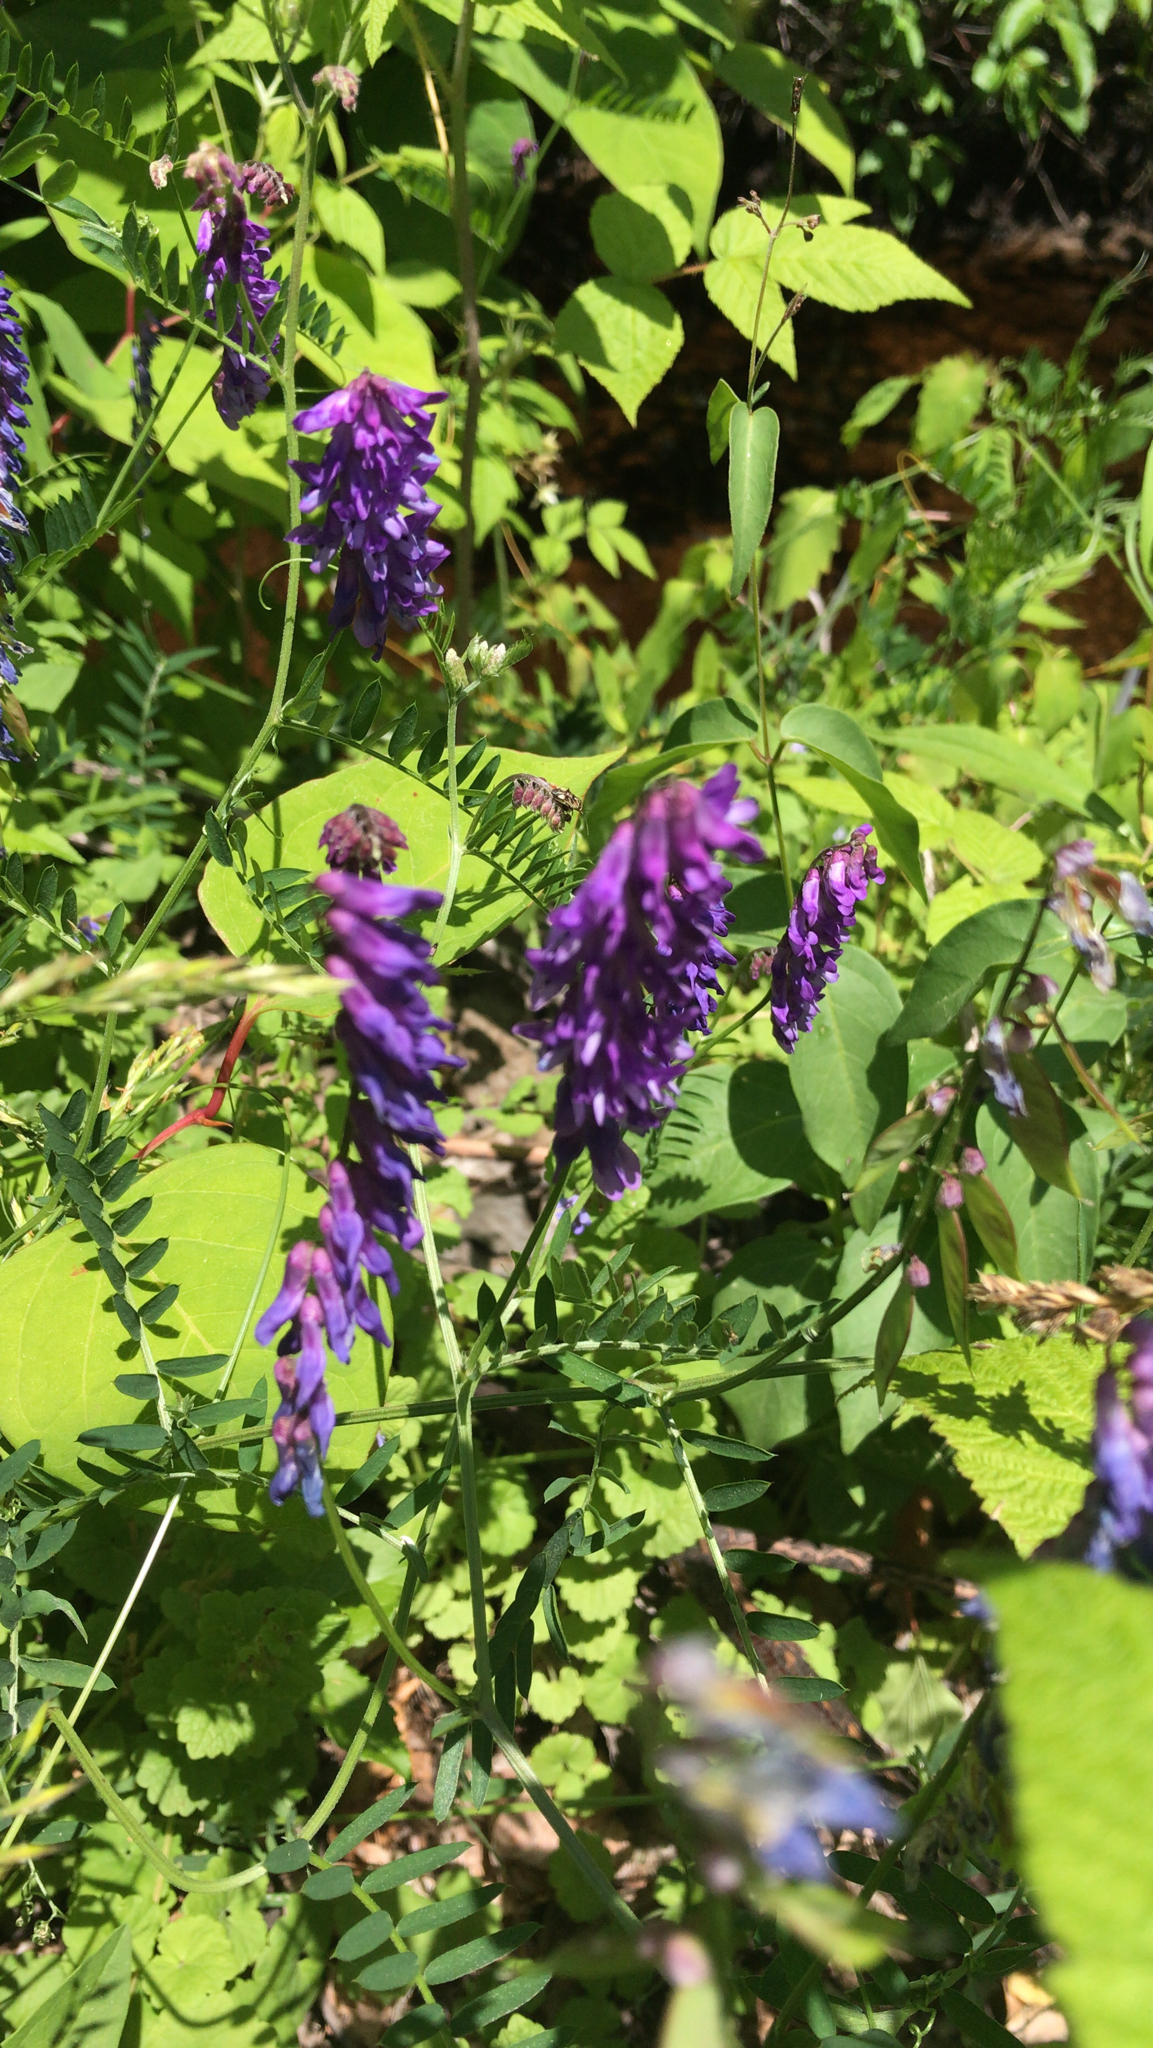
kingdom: Plantae
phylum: Tracheophyta
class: Magnoliopsida
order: Fabales
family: Fabaceae
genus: Vicia
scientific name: Vicia cracca
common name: Bird vetch
